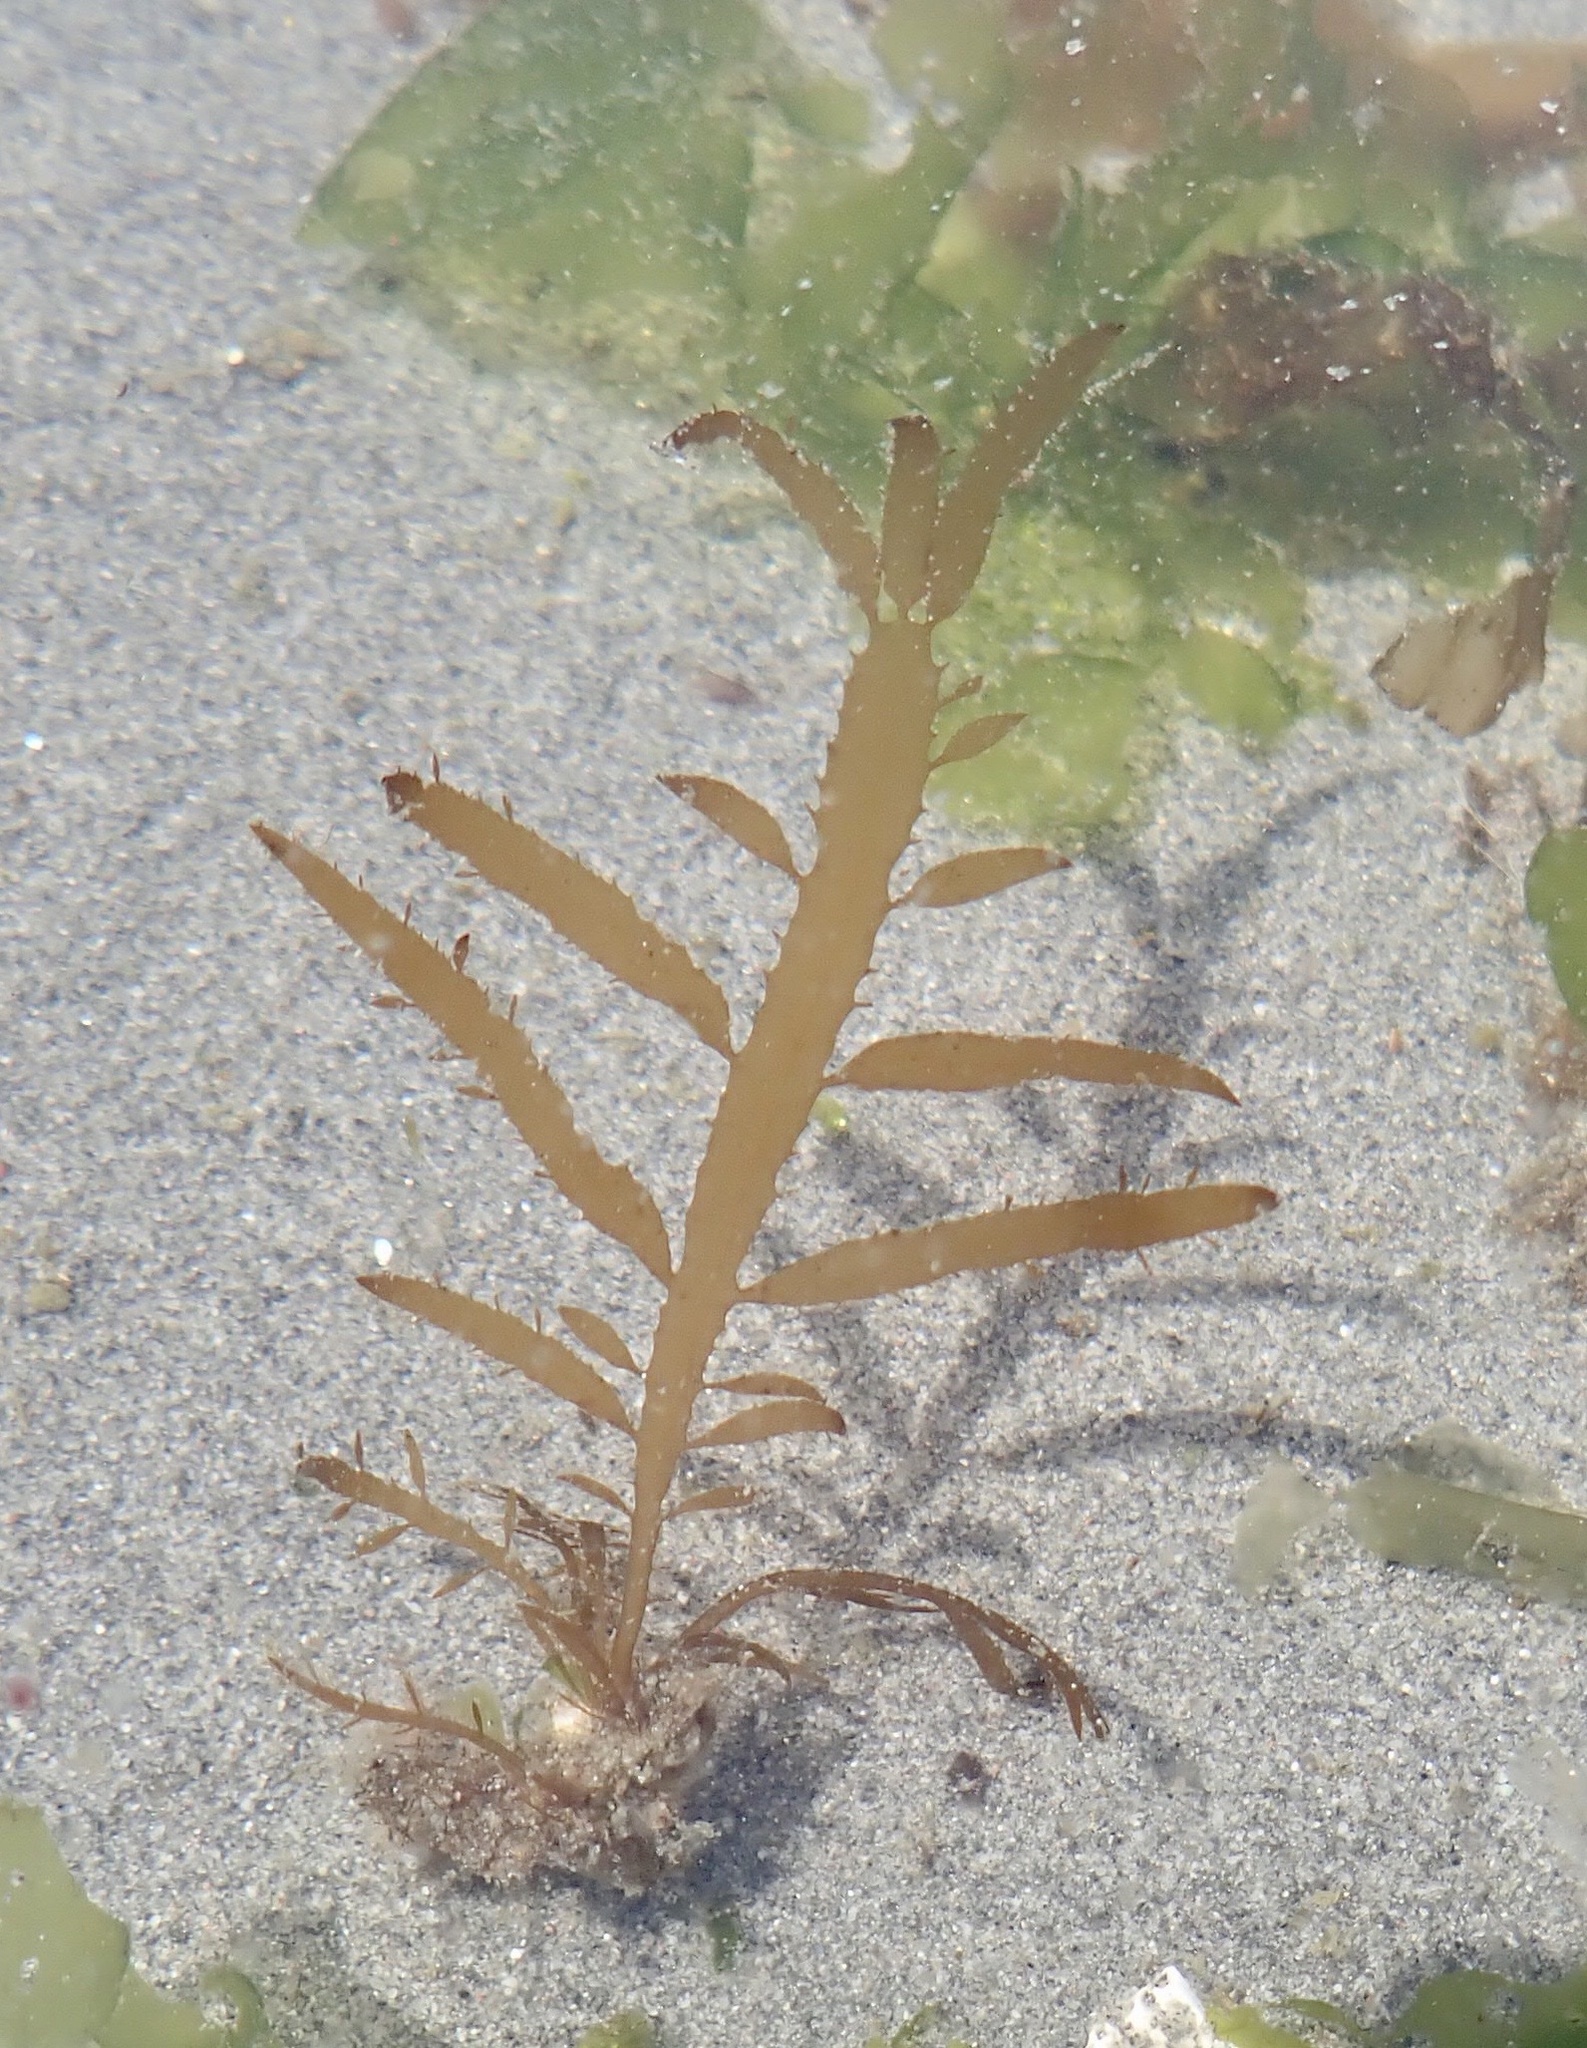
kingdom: Chromista
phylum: Ochrophyta
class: Phaeophyceae
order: Desmarestiales
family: Desmarestiaceae
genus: Desmarestia
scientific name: Desmarestia ligulata
